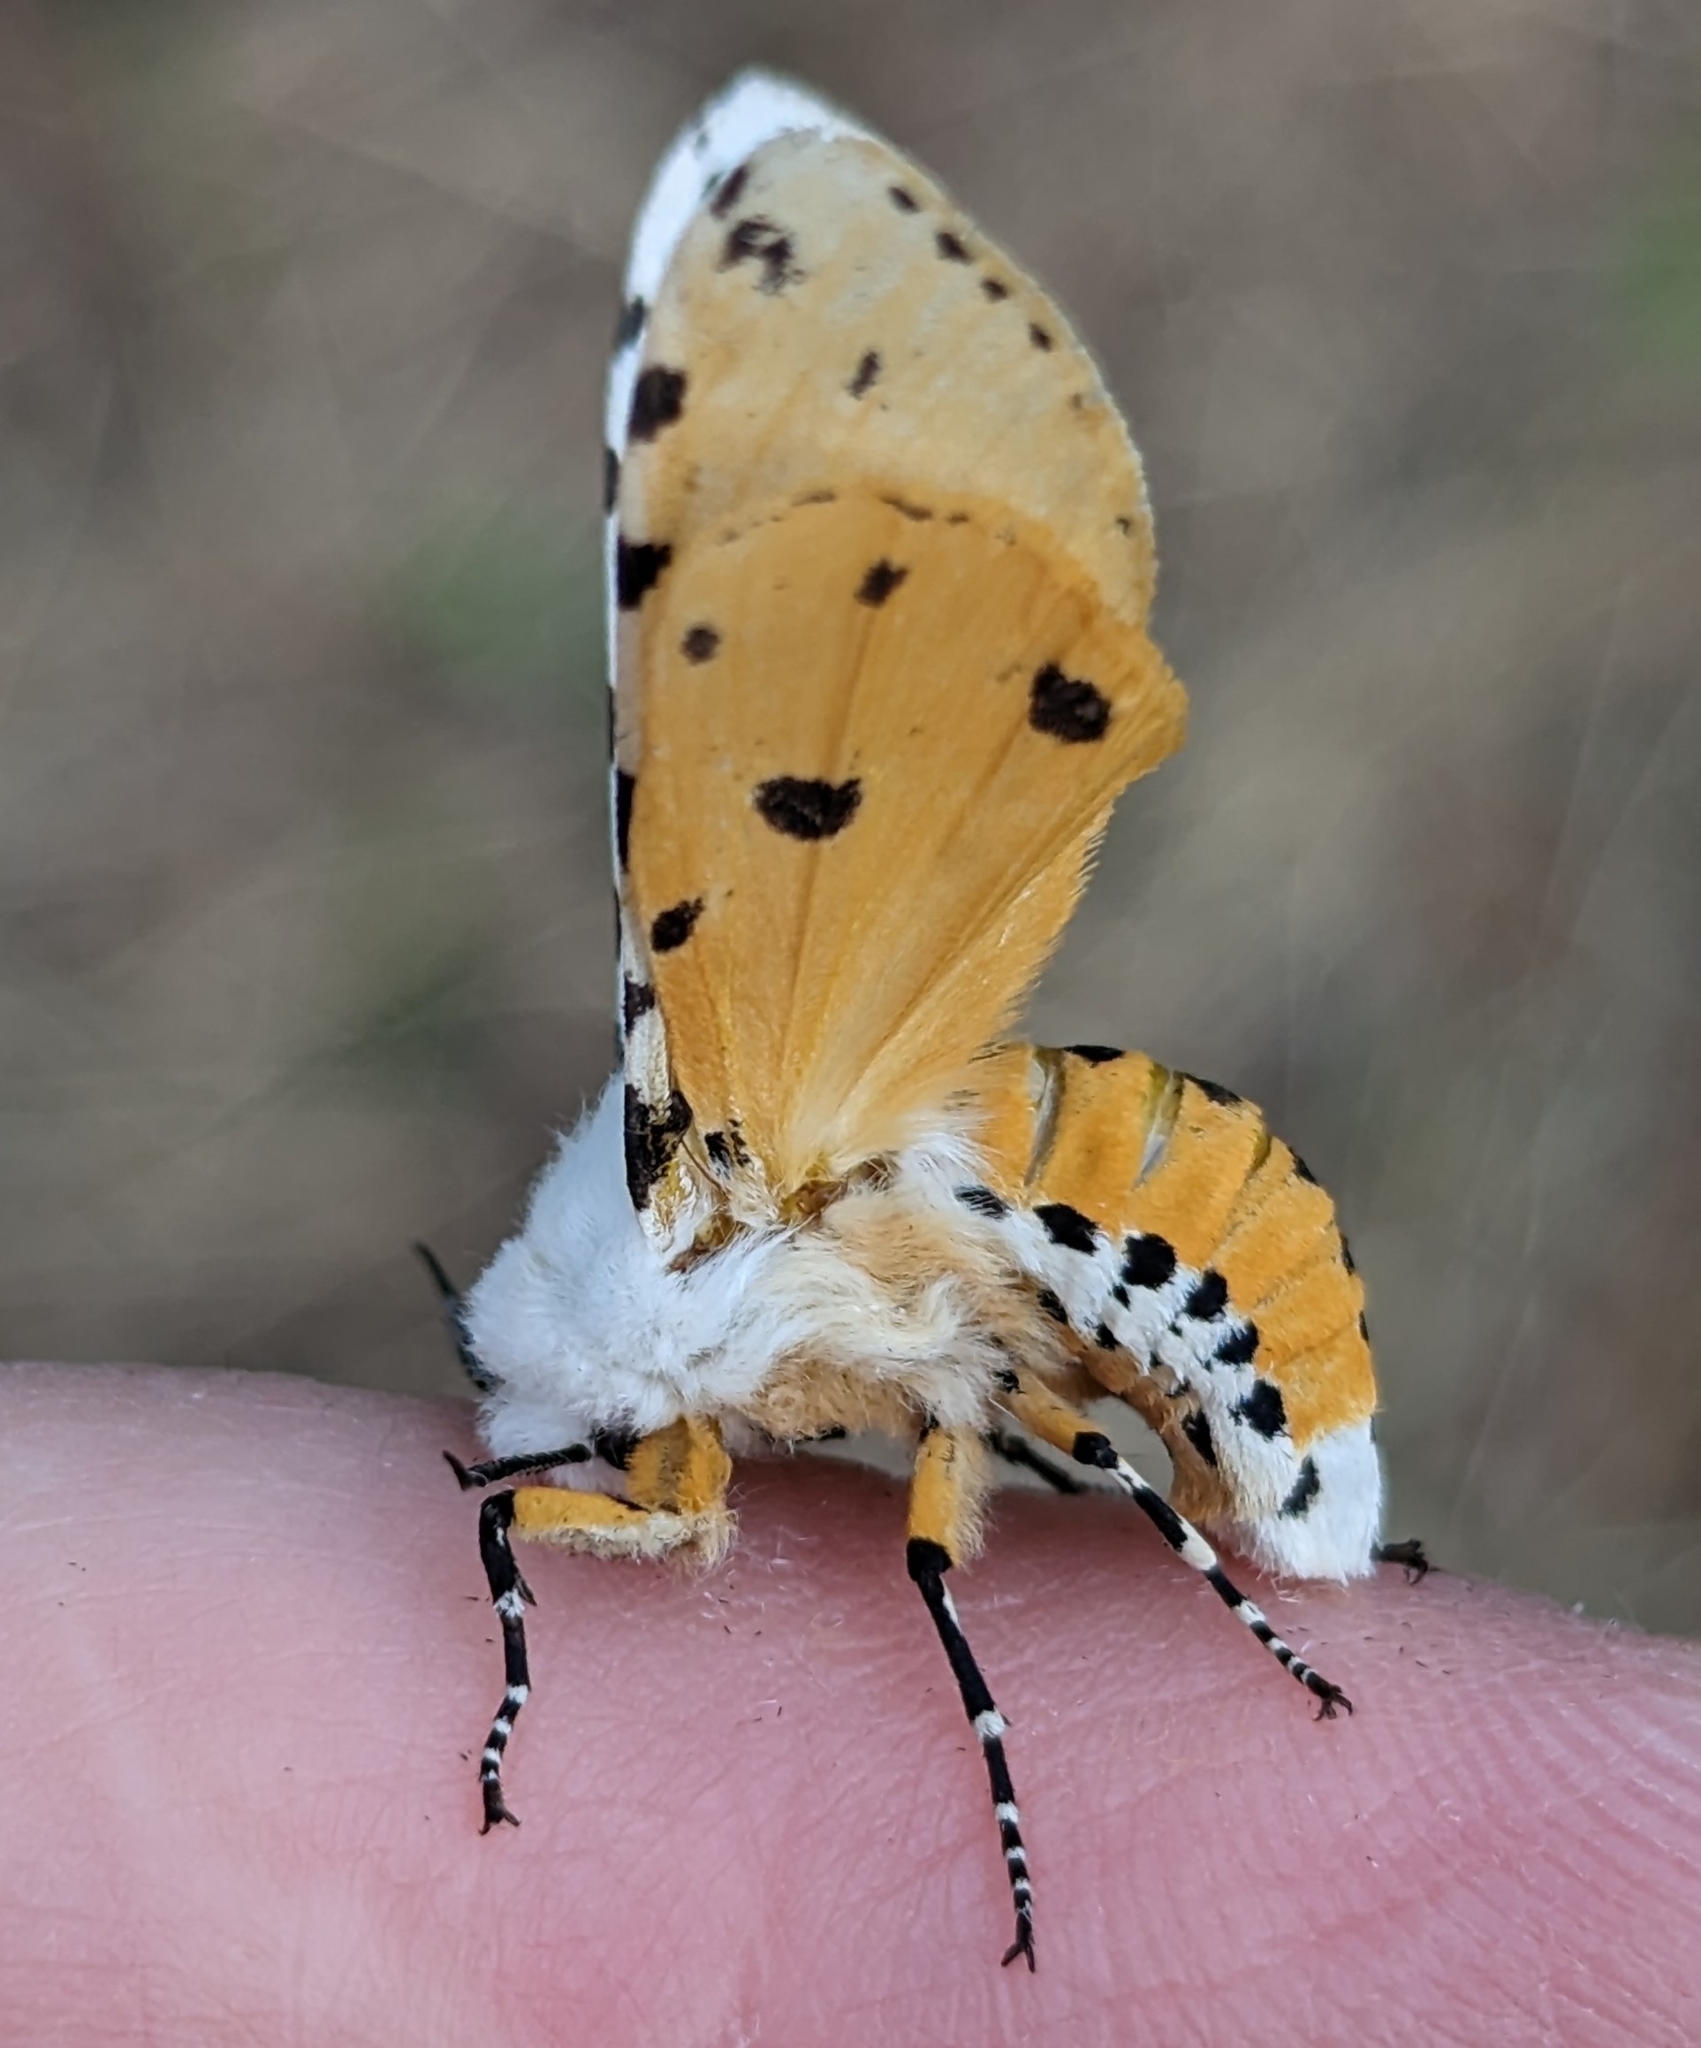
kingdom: Animalia
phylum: Arthropoda
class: Insecta
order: Lepidoptera
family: Erebidae
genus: Estigmene
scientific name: Estigmene acrea
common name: Salt marsh moth
